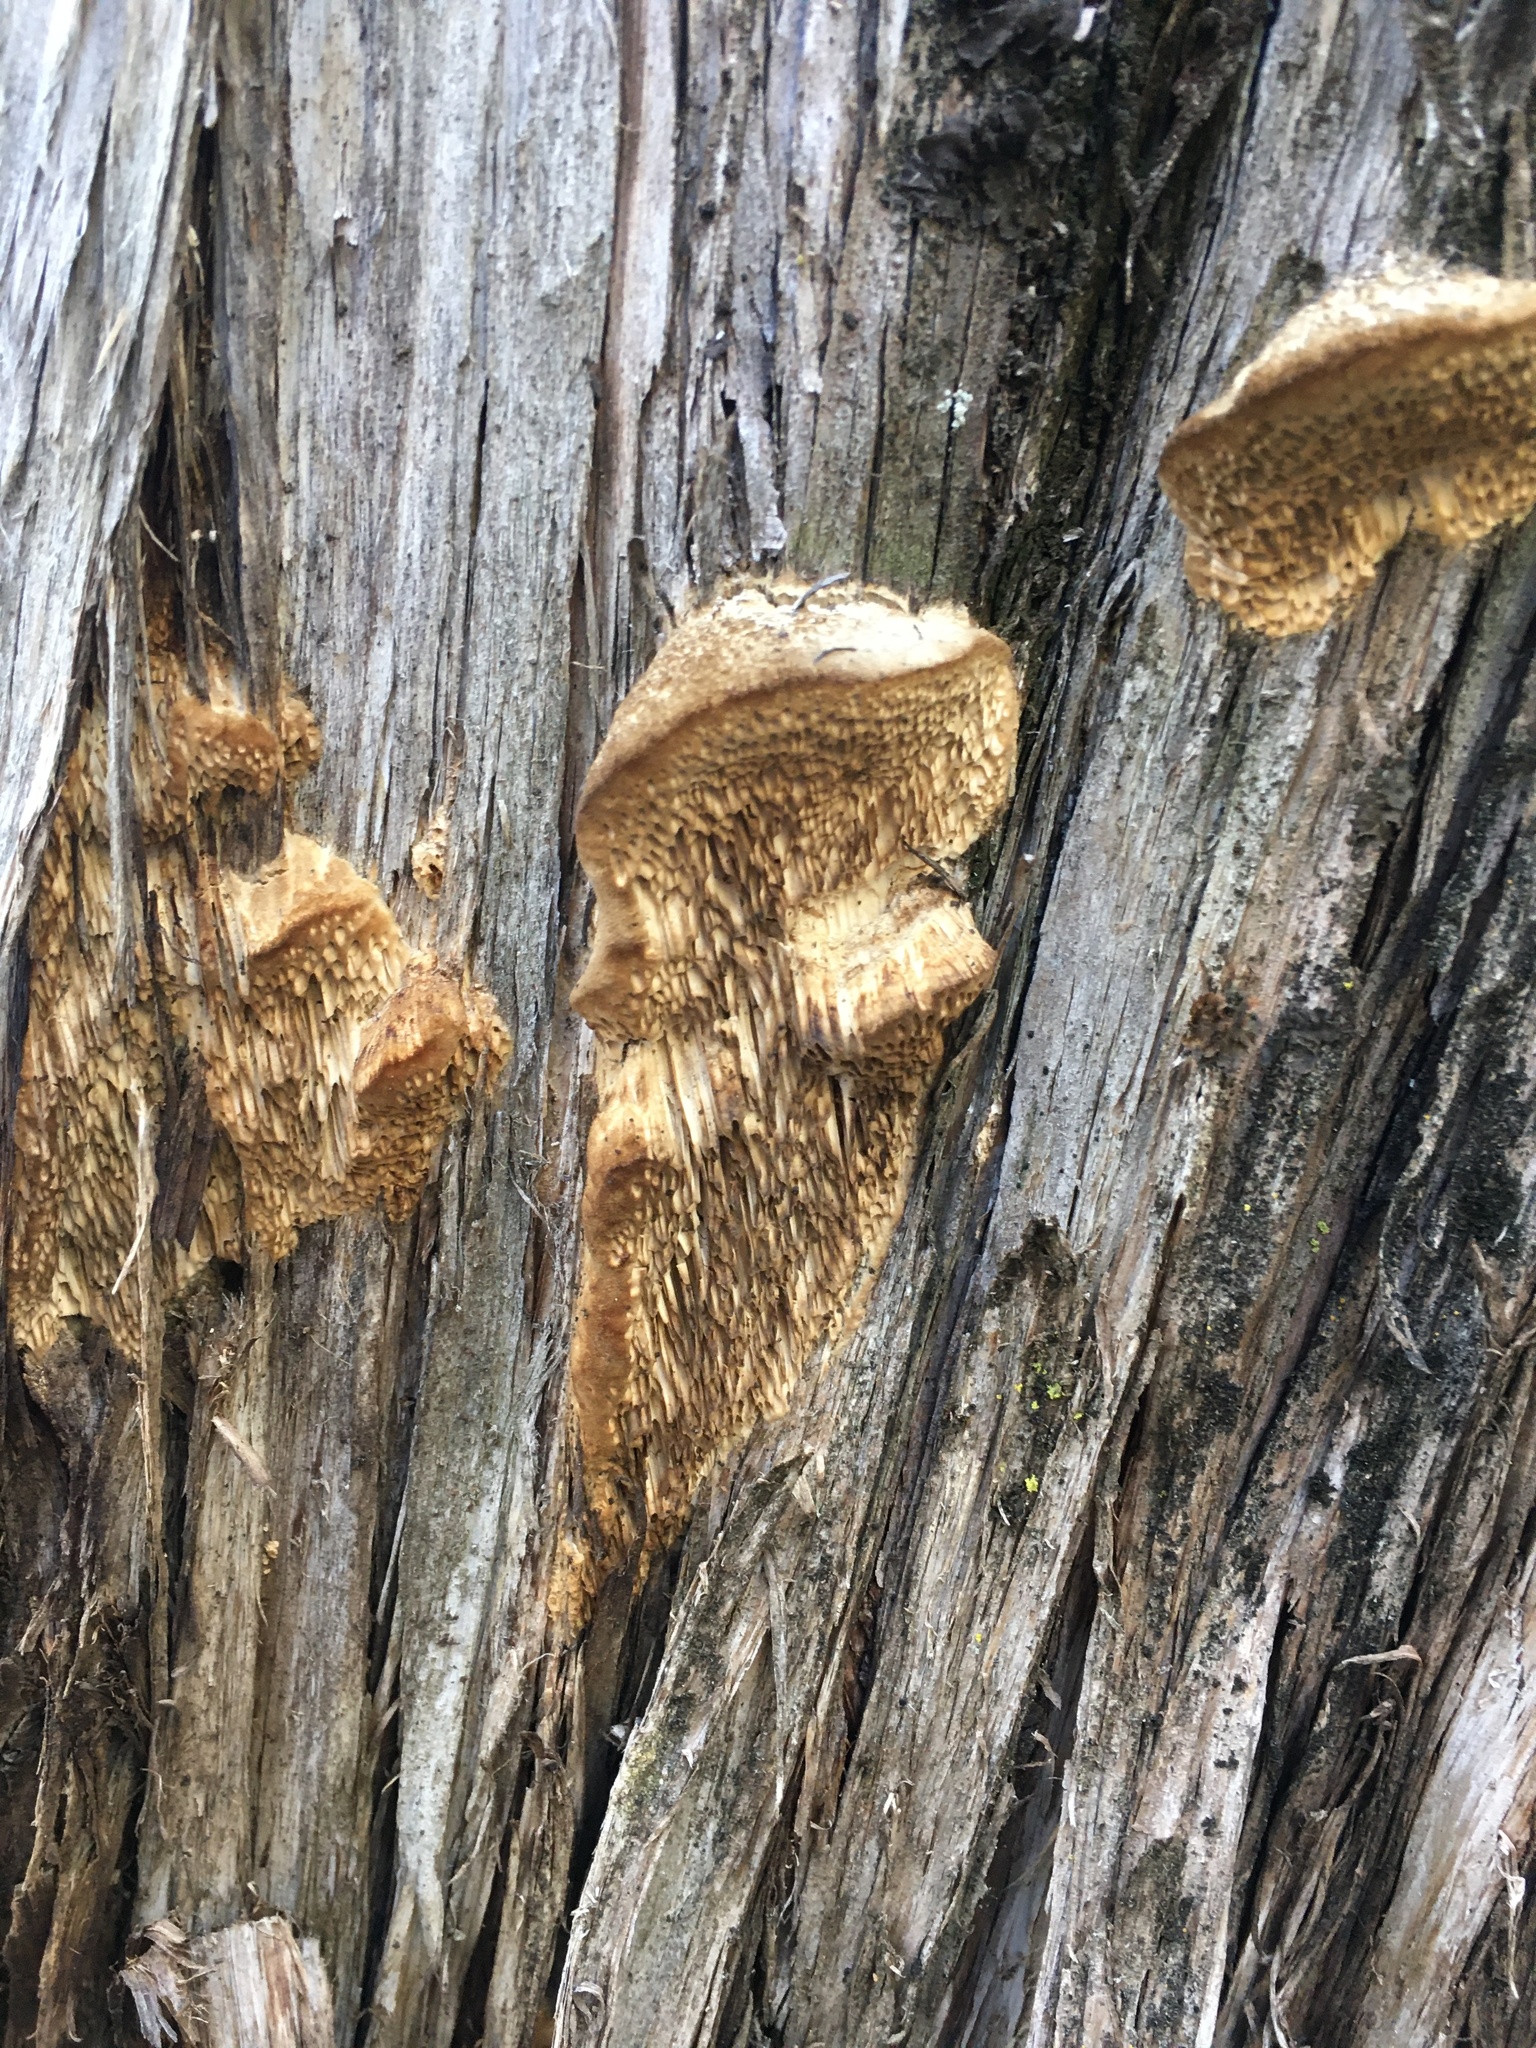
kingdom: Fungi
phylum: Basidiomycota
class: Agaricomycetes
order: Polyporales
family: Fomitopsidaceae
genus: Fomitopsis
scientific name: Fomitopsis
